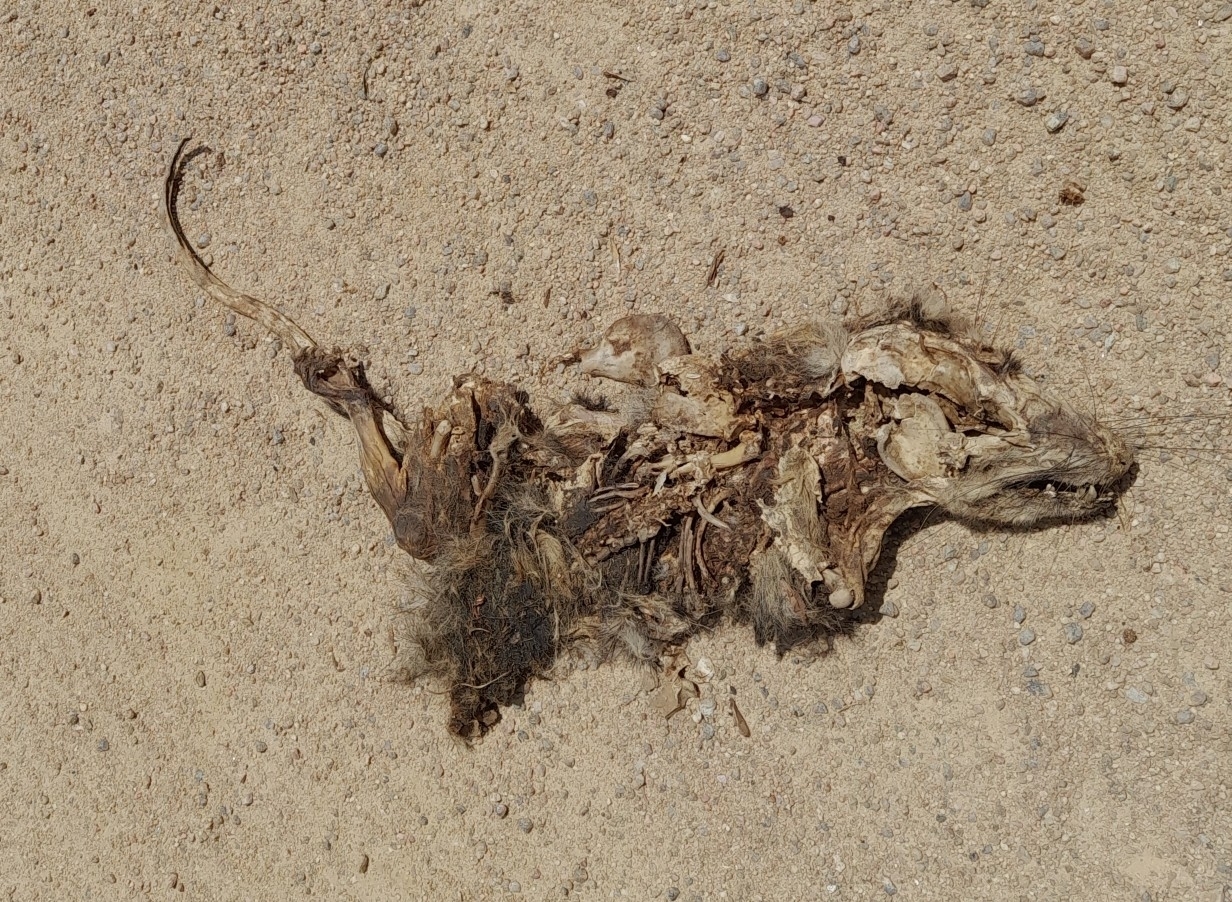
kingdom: Animalia
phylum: Chordata
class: Mammalia
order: Didelphimorphia
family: Didelphidae
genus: Didelphis
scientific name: Didelphis albiventris
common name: White-eared opossum
